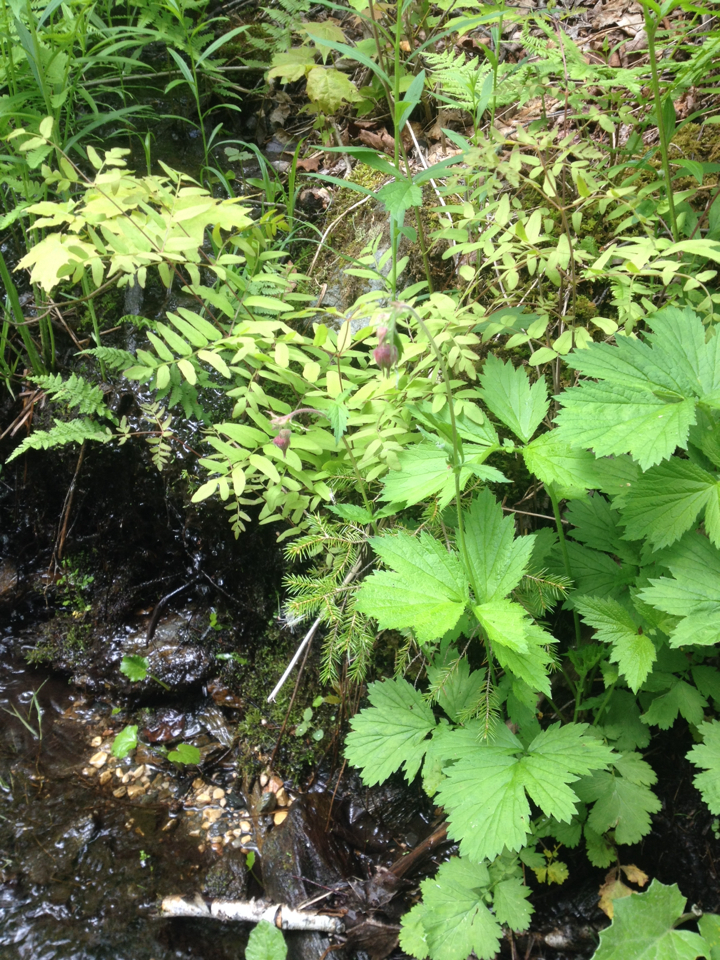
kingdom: Plantae
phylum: Tracheophyta
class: Magnoliopsida
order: Rosales
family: Rosaceae
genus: Geum
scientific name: Geum rivale
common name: Water avens
